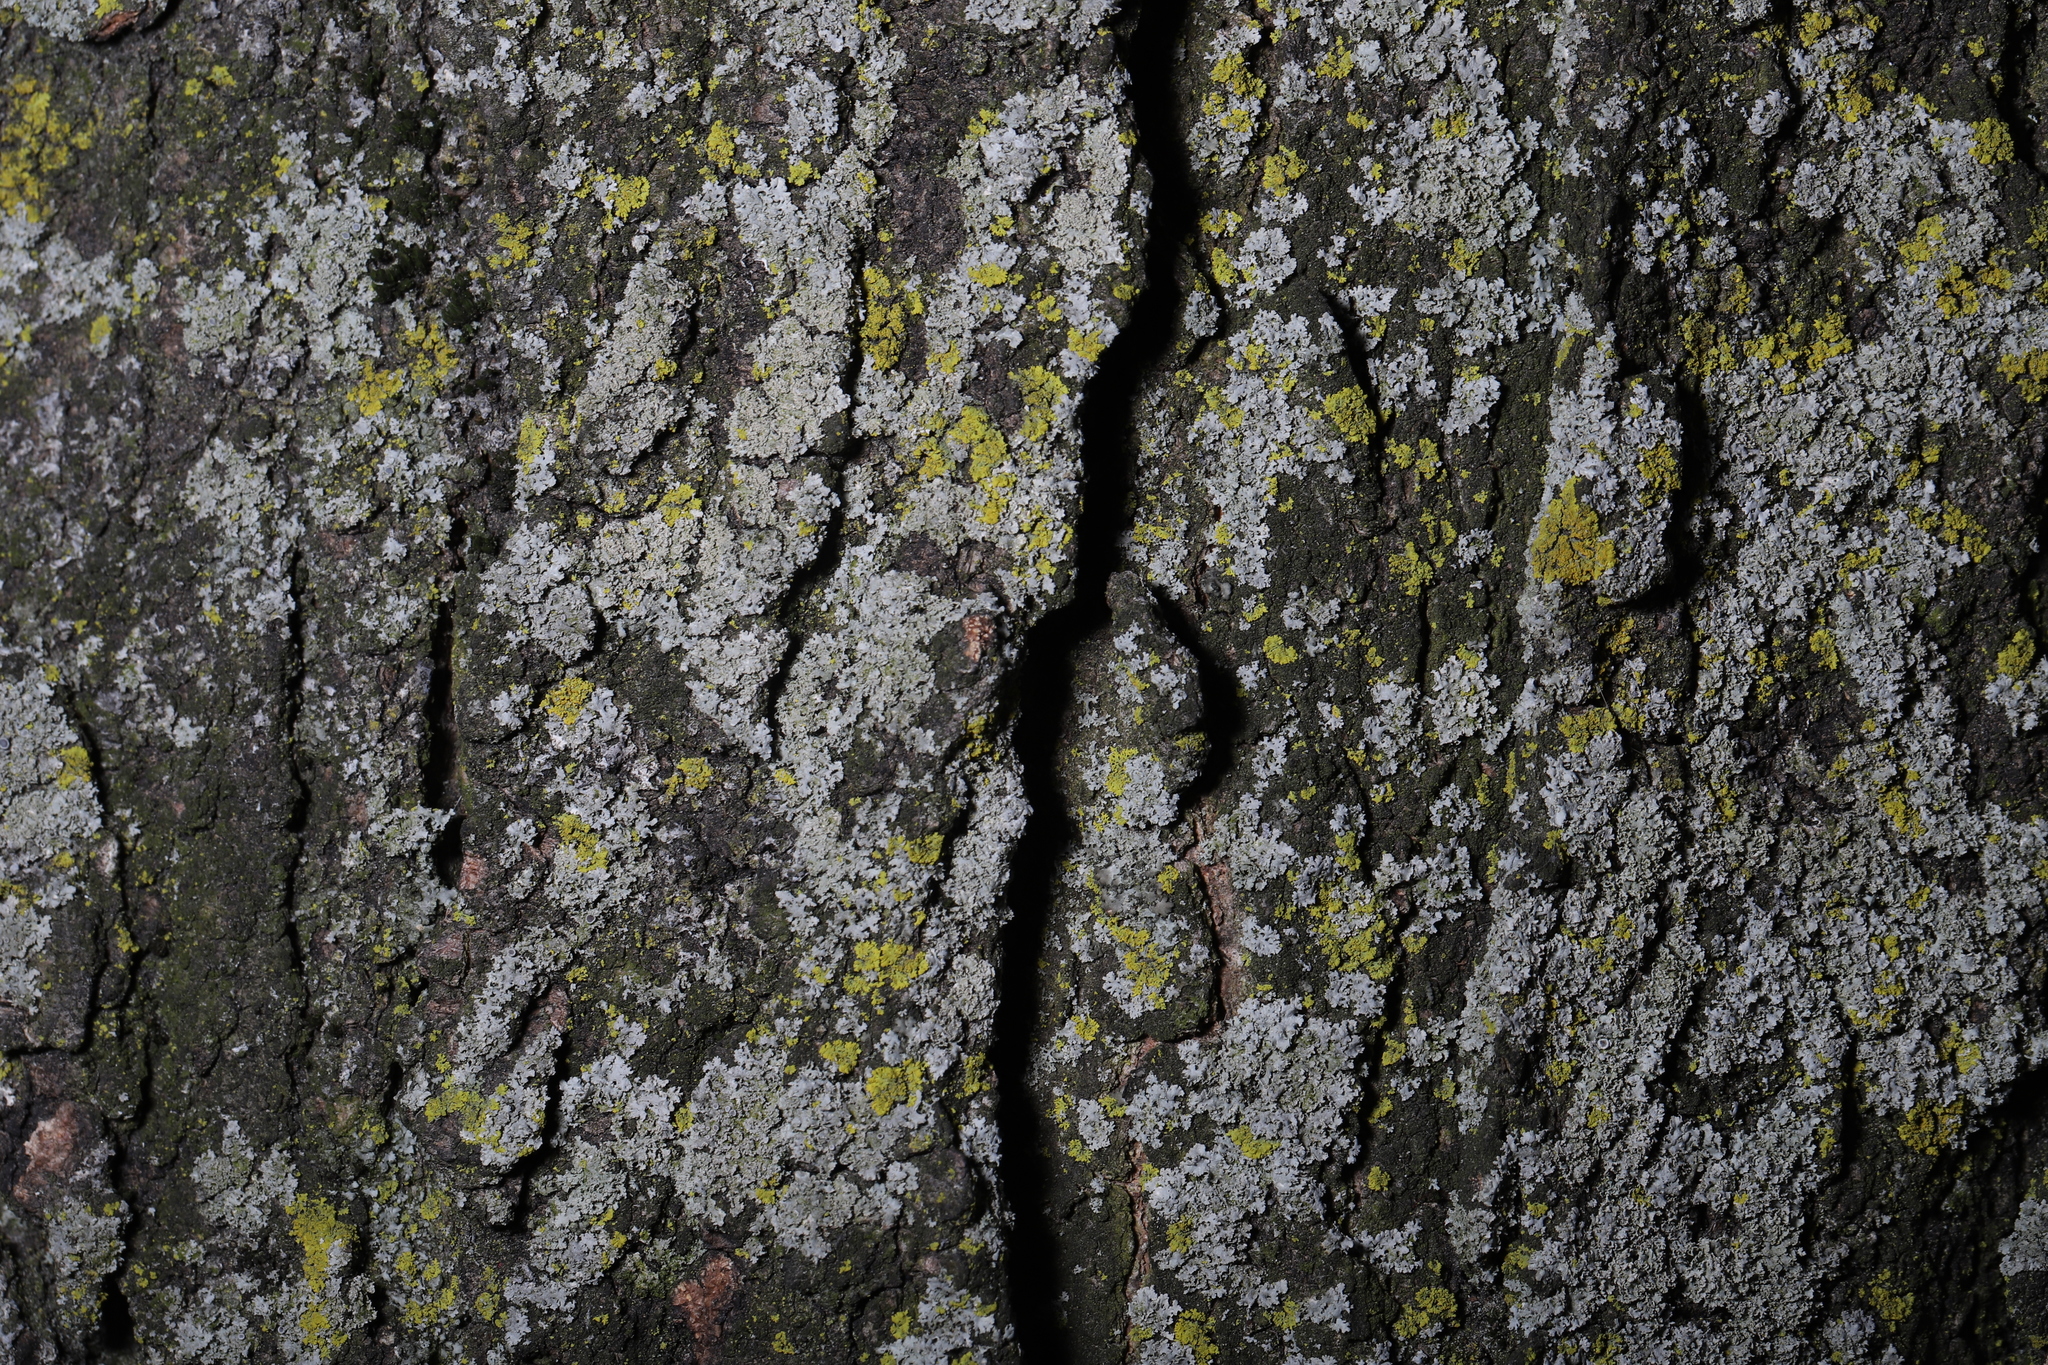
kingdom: Fungi
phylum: Ascomycota
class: Candelariomycetes
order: Candelariales
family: Candelariaceae
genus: Candelaria
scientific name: Candelaria concolor
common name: Candleflame lichen
